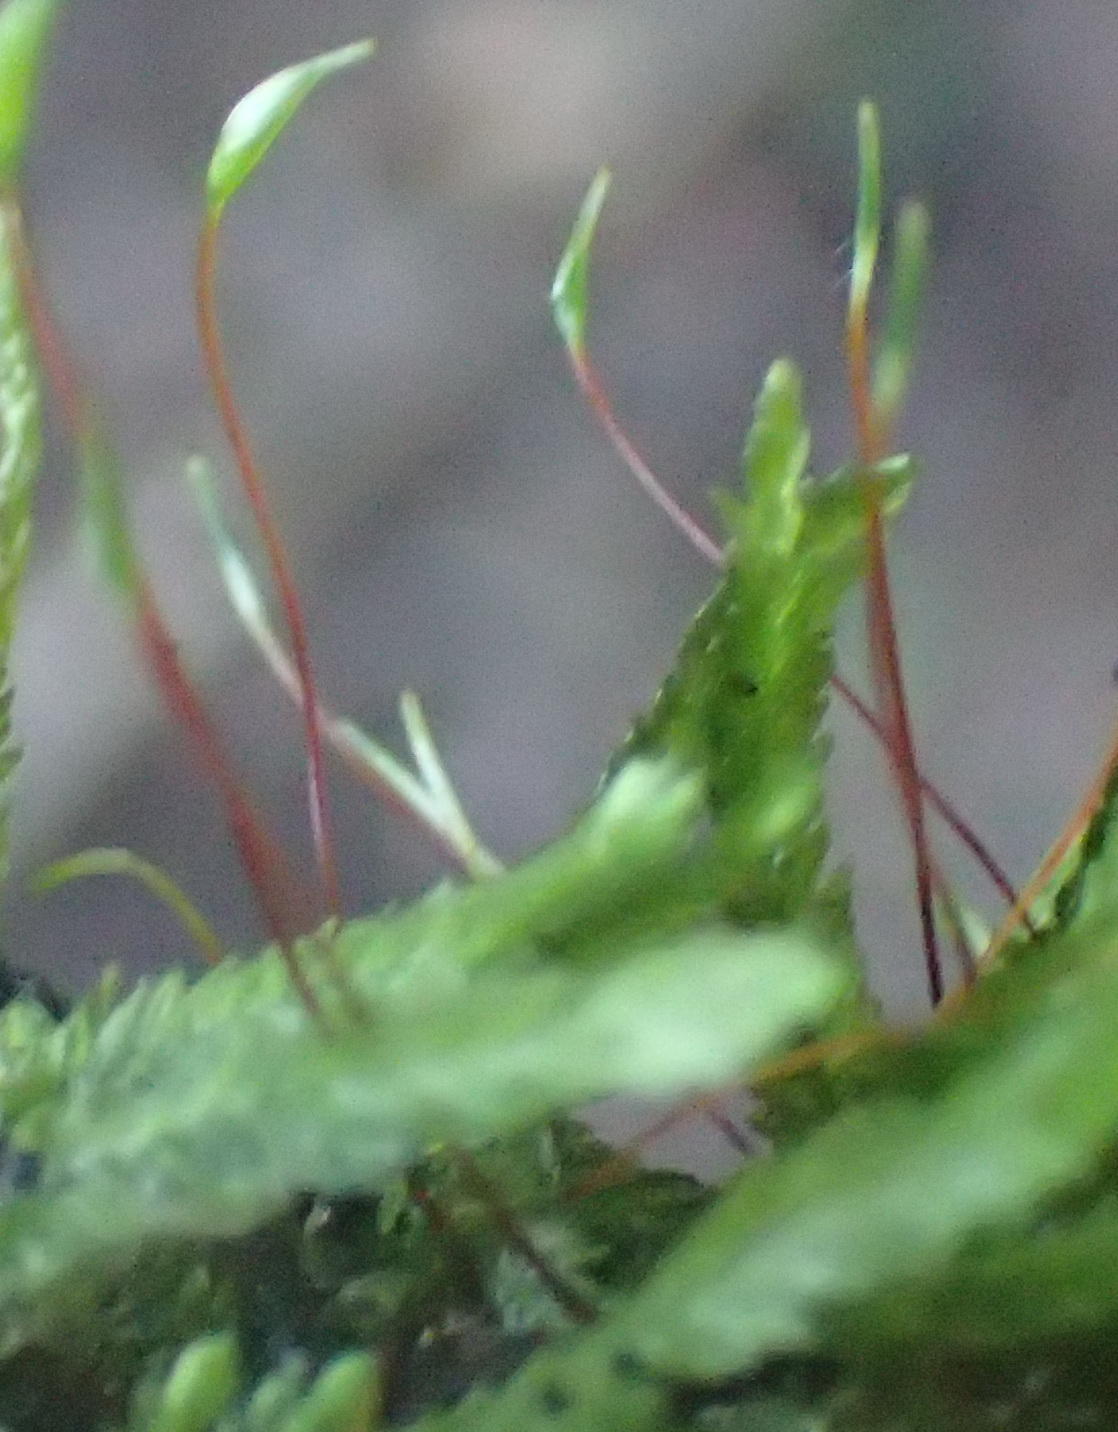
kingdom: Plantae
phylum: Bryophyta
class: Bryopsida
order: Hypnales
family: Catagoniaceae
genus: Catagonium
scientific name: Catagonium nitens
